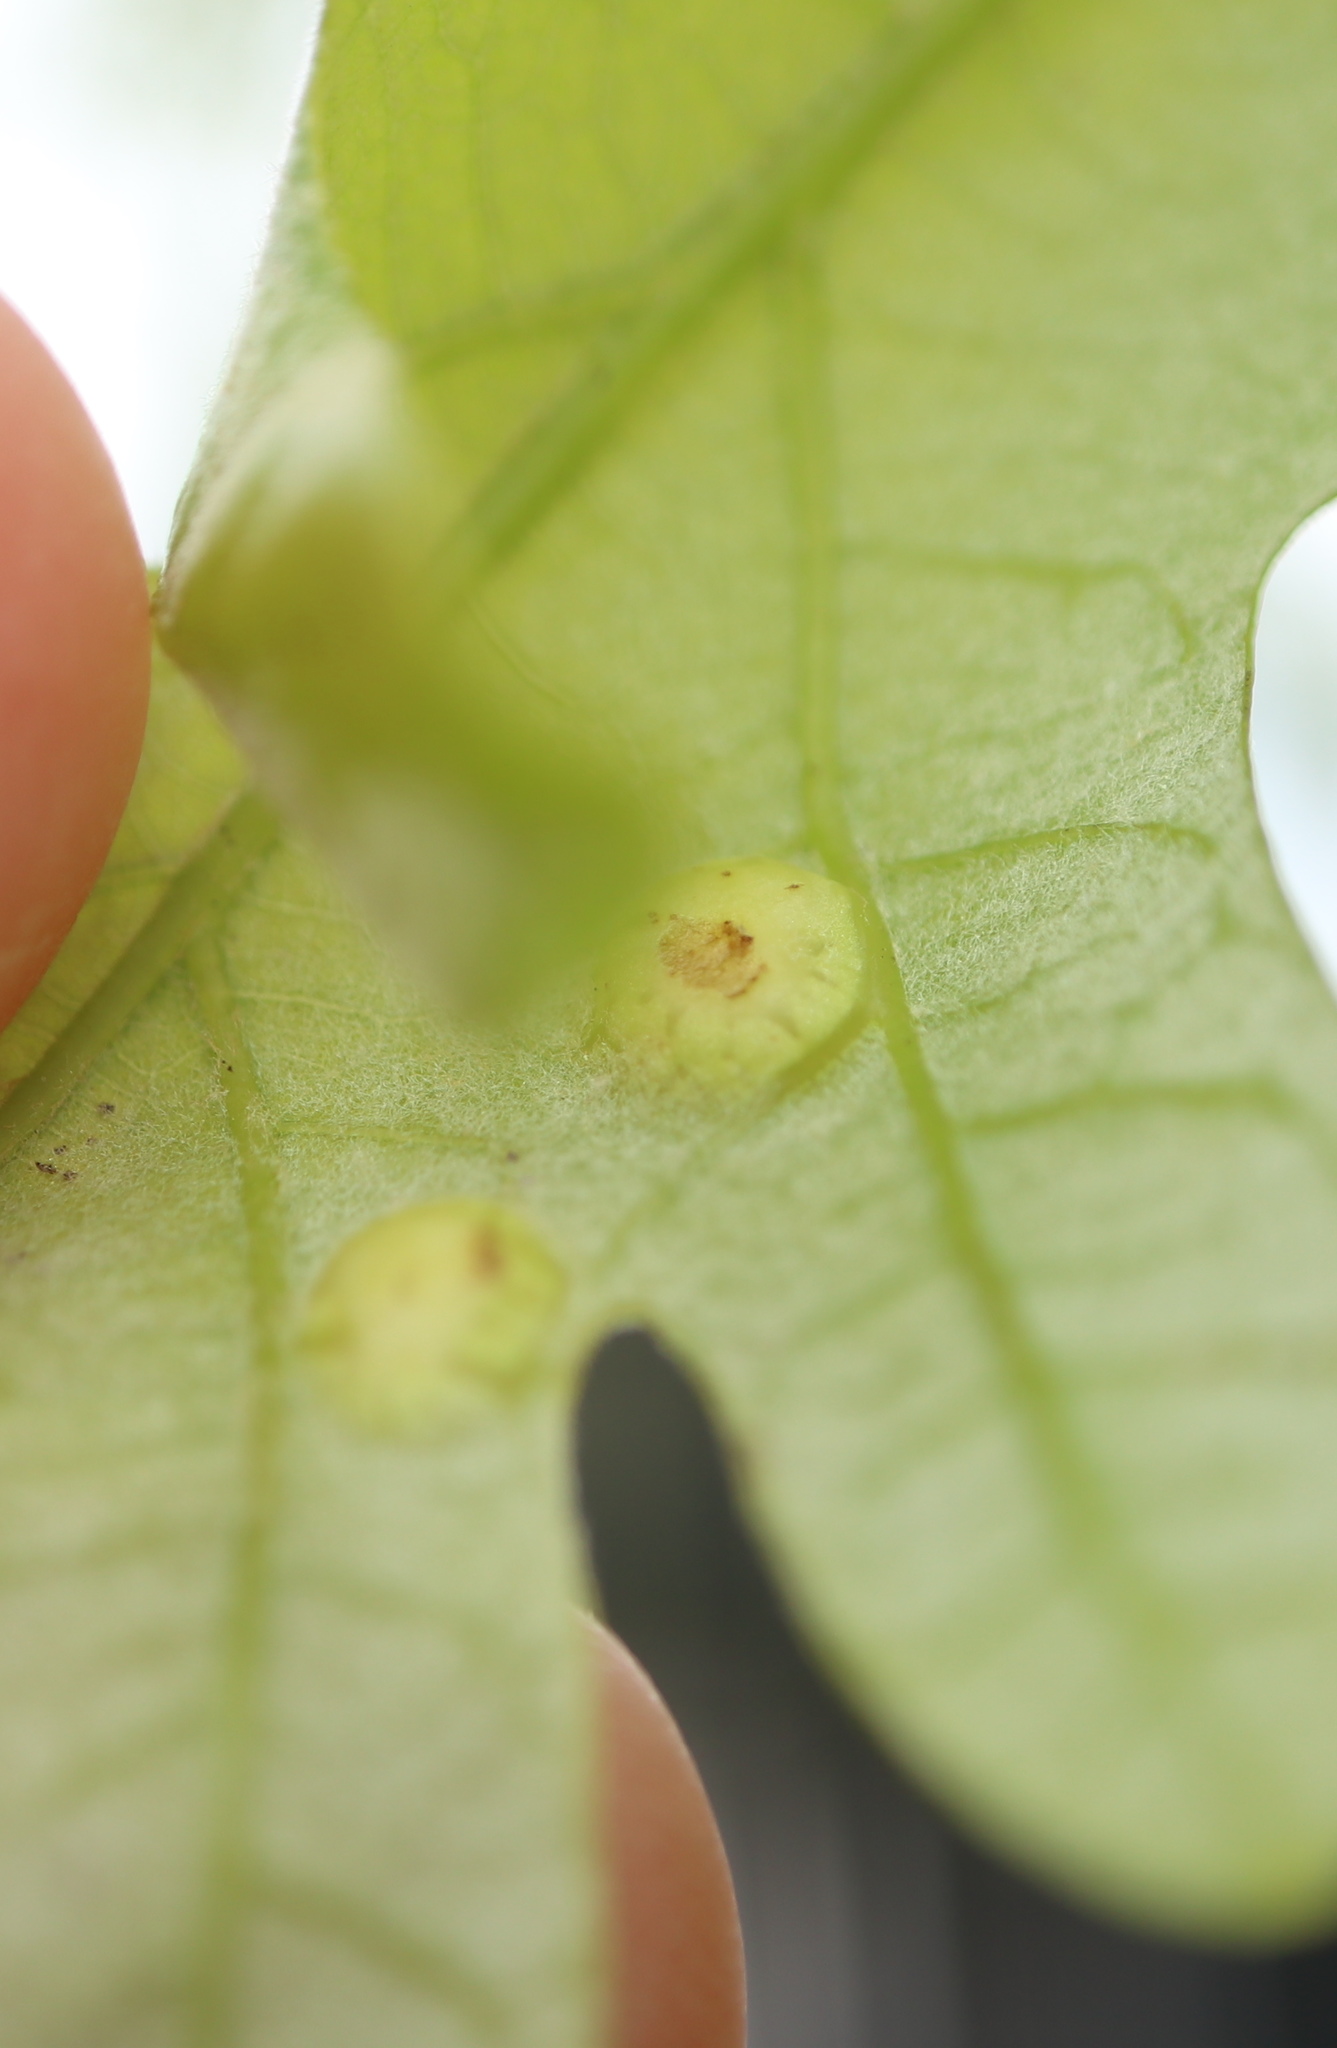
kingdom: Animalia
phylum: Arthropoda
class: Insecta
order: Hymenoptera
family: Cynipidae
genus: Callirhytis
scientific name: Callirhytis
